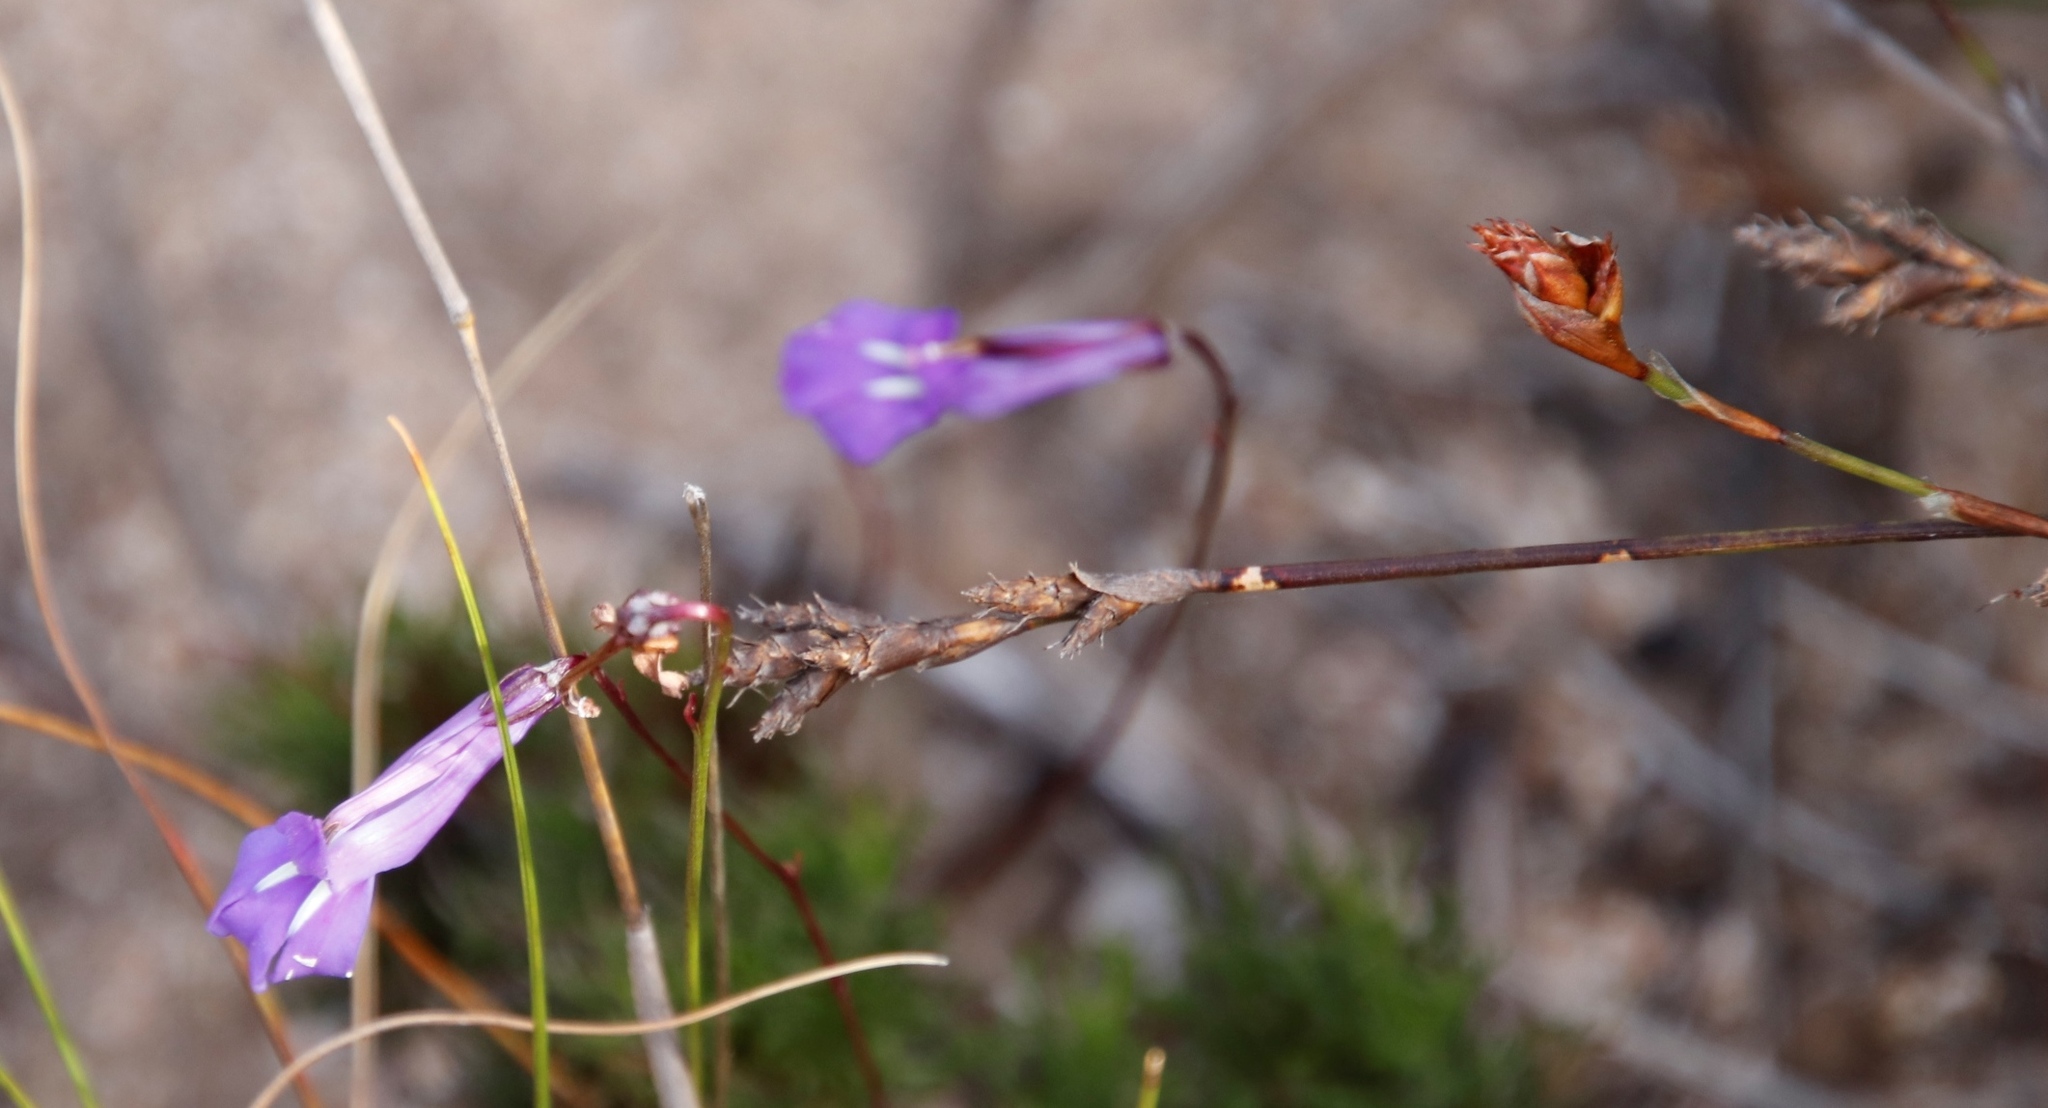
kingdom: Plantae
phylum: Tracheophyta
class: Magnoliopsida
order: Asterales
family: Campanulaceae
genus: Lobelia
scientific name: Lobelia coronopifolia
